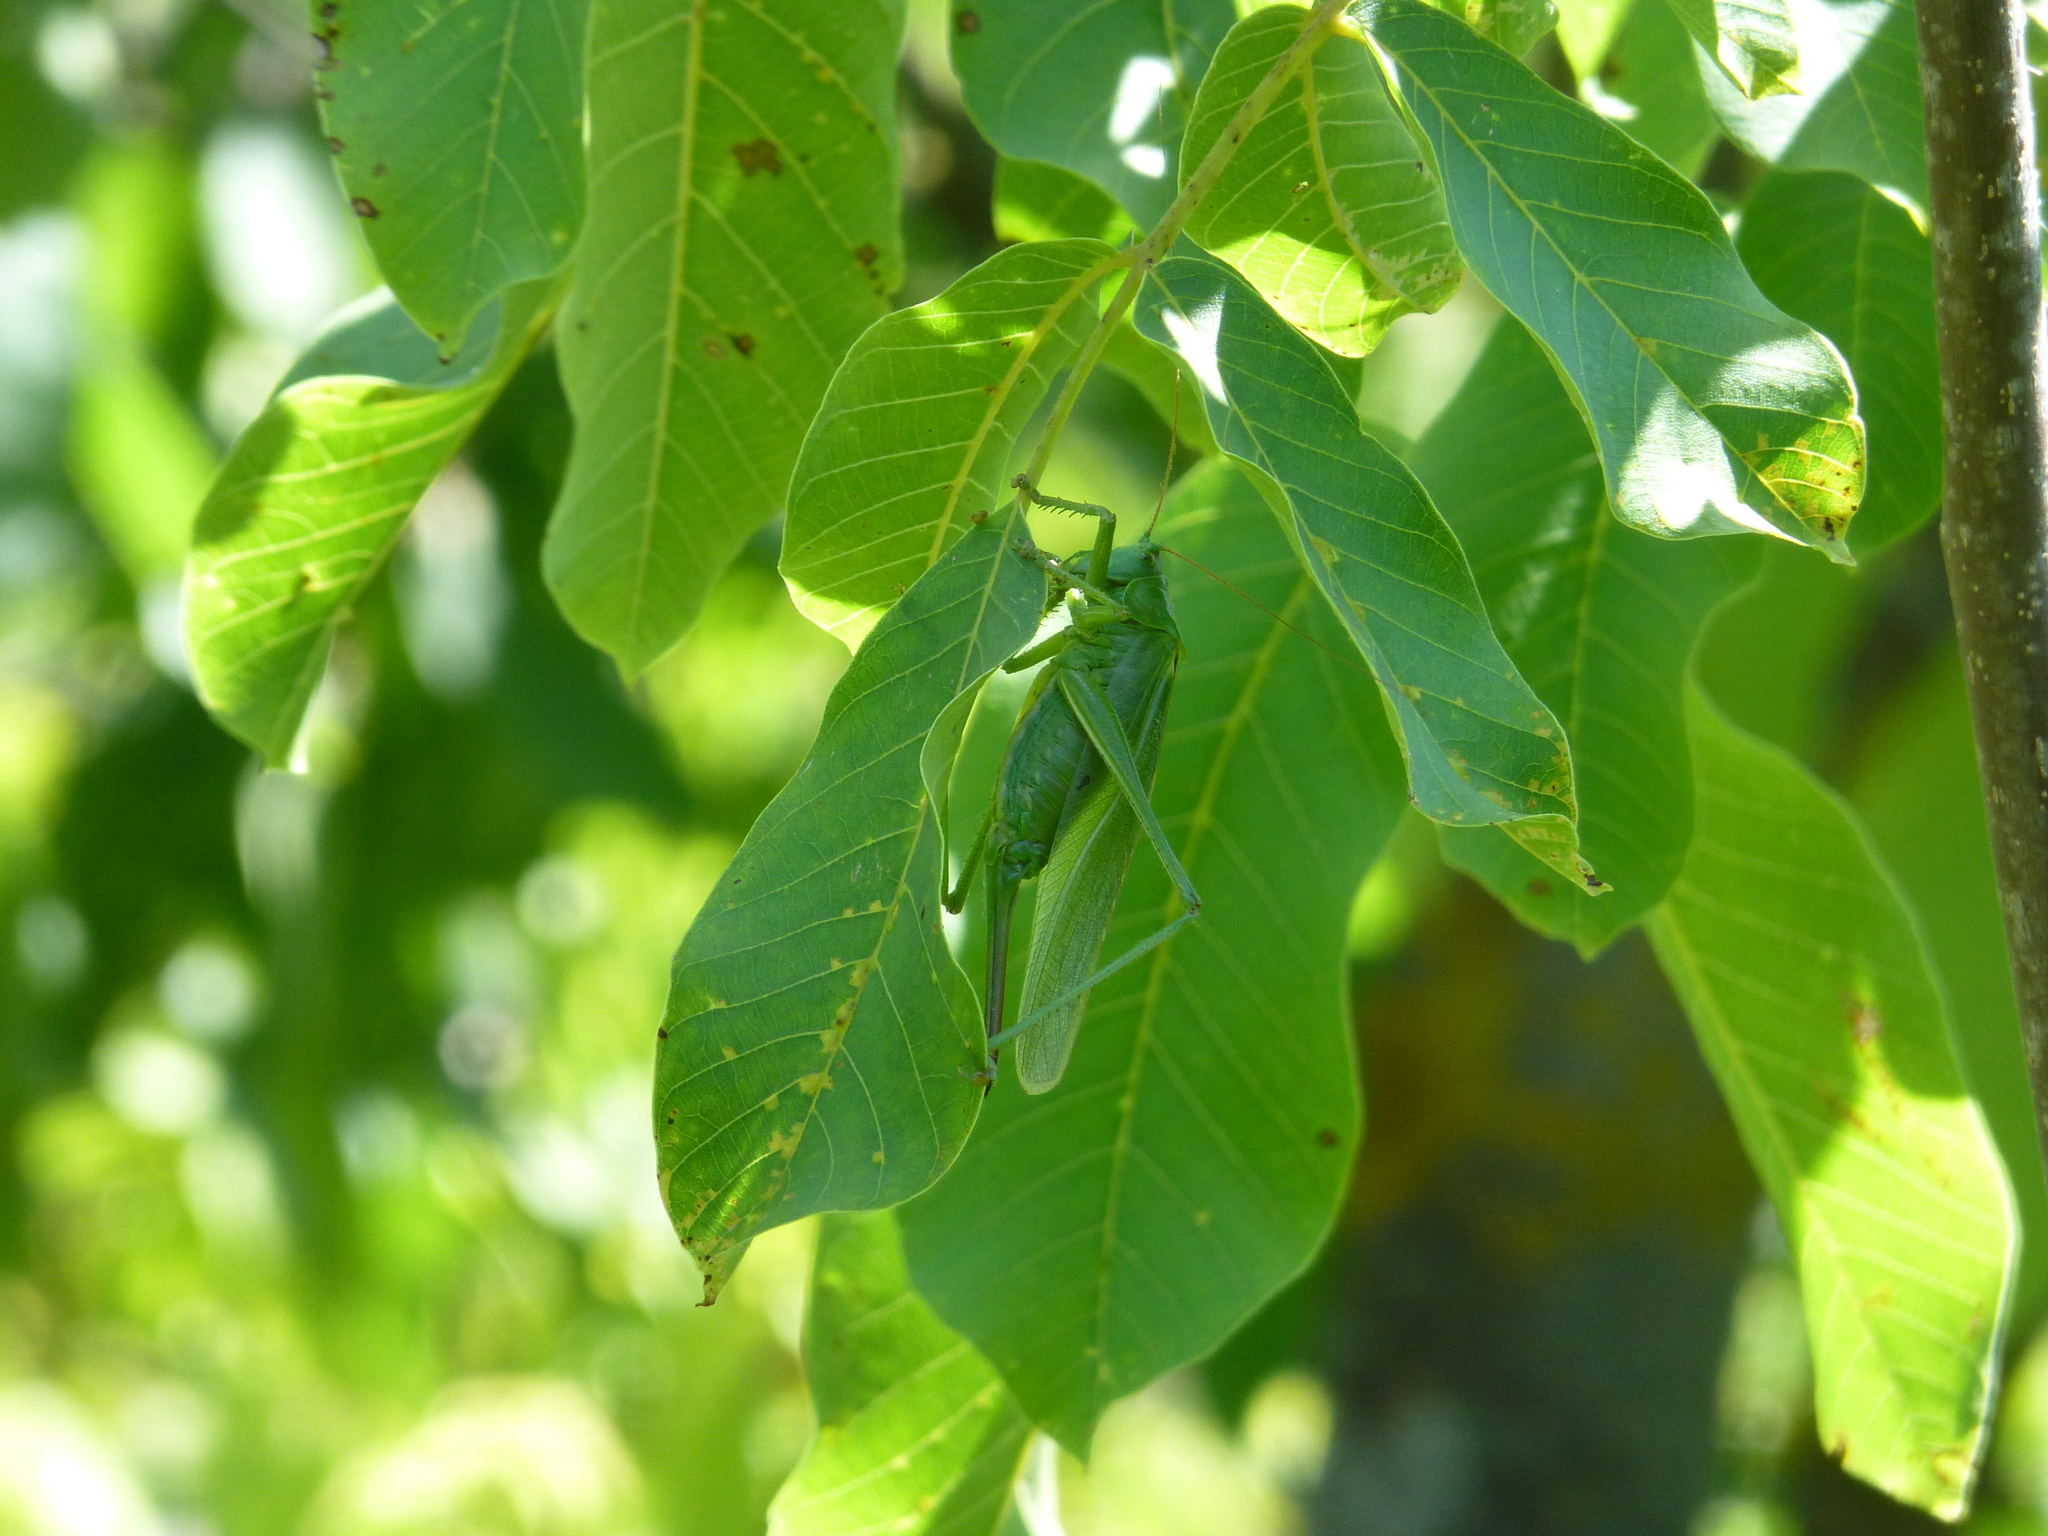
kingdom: Animalia
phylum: Arthropoda
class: Insecta
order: Orthoptera
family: Tettigoniidae
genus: Tettigonia
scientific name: Tettigonia viridissima
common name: Great green bush-cricket
